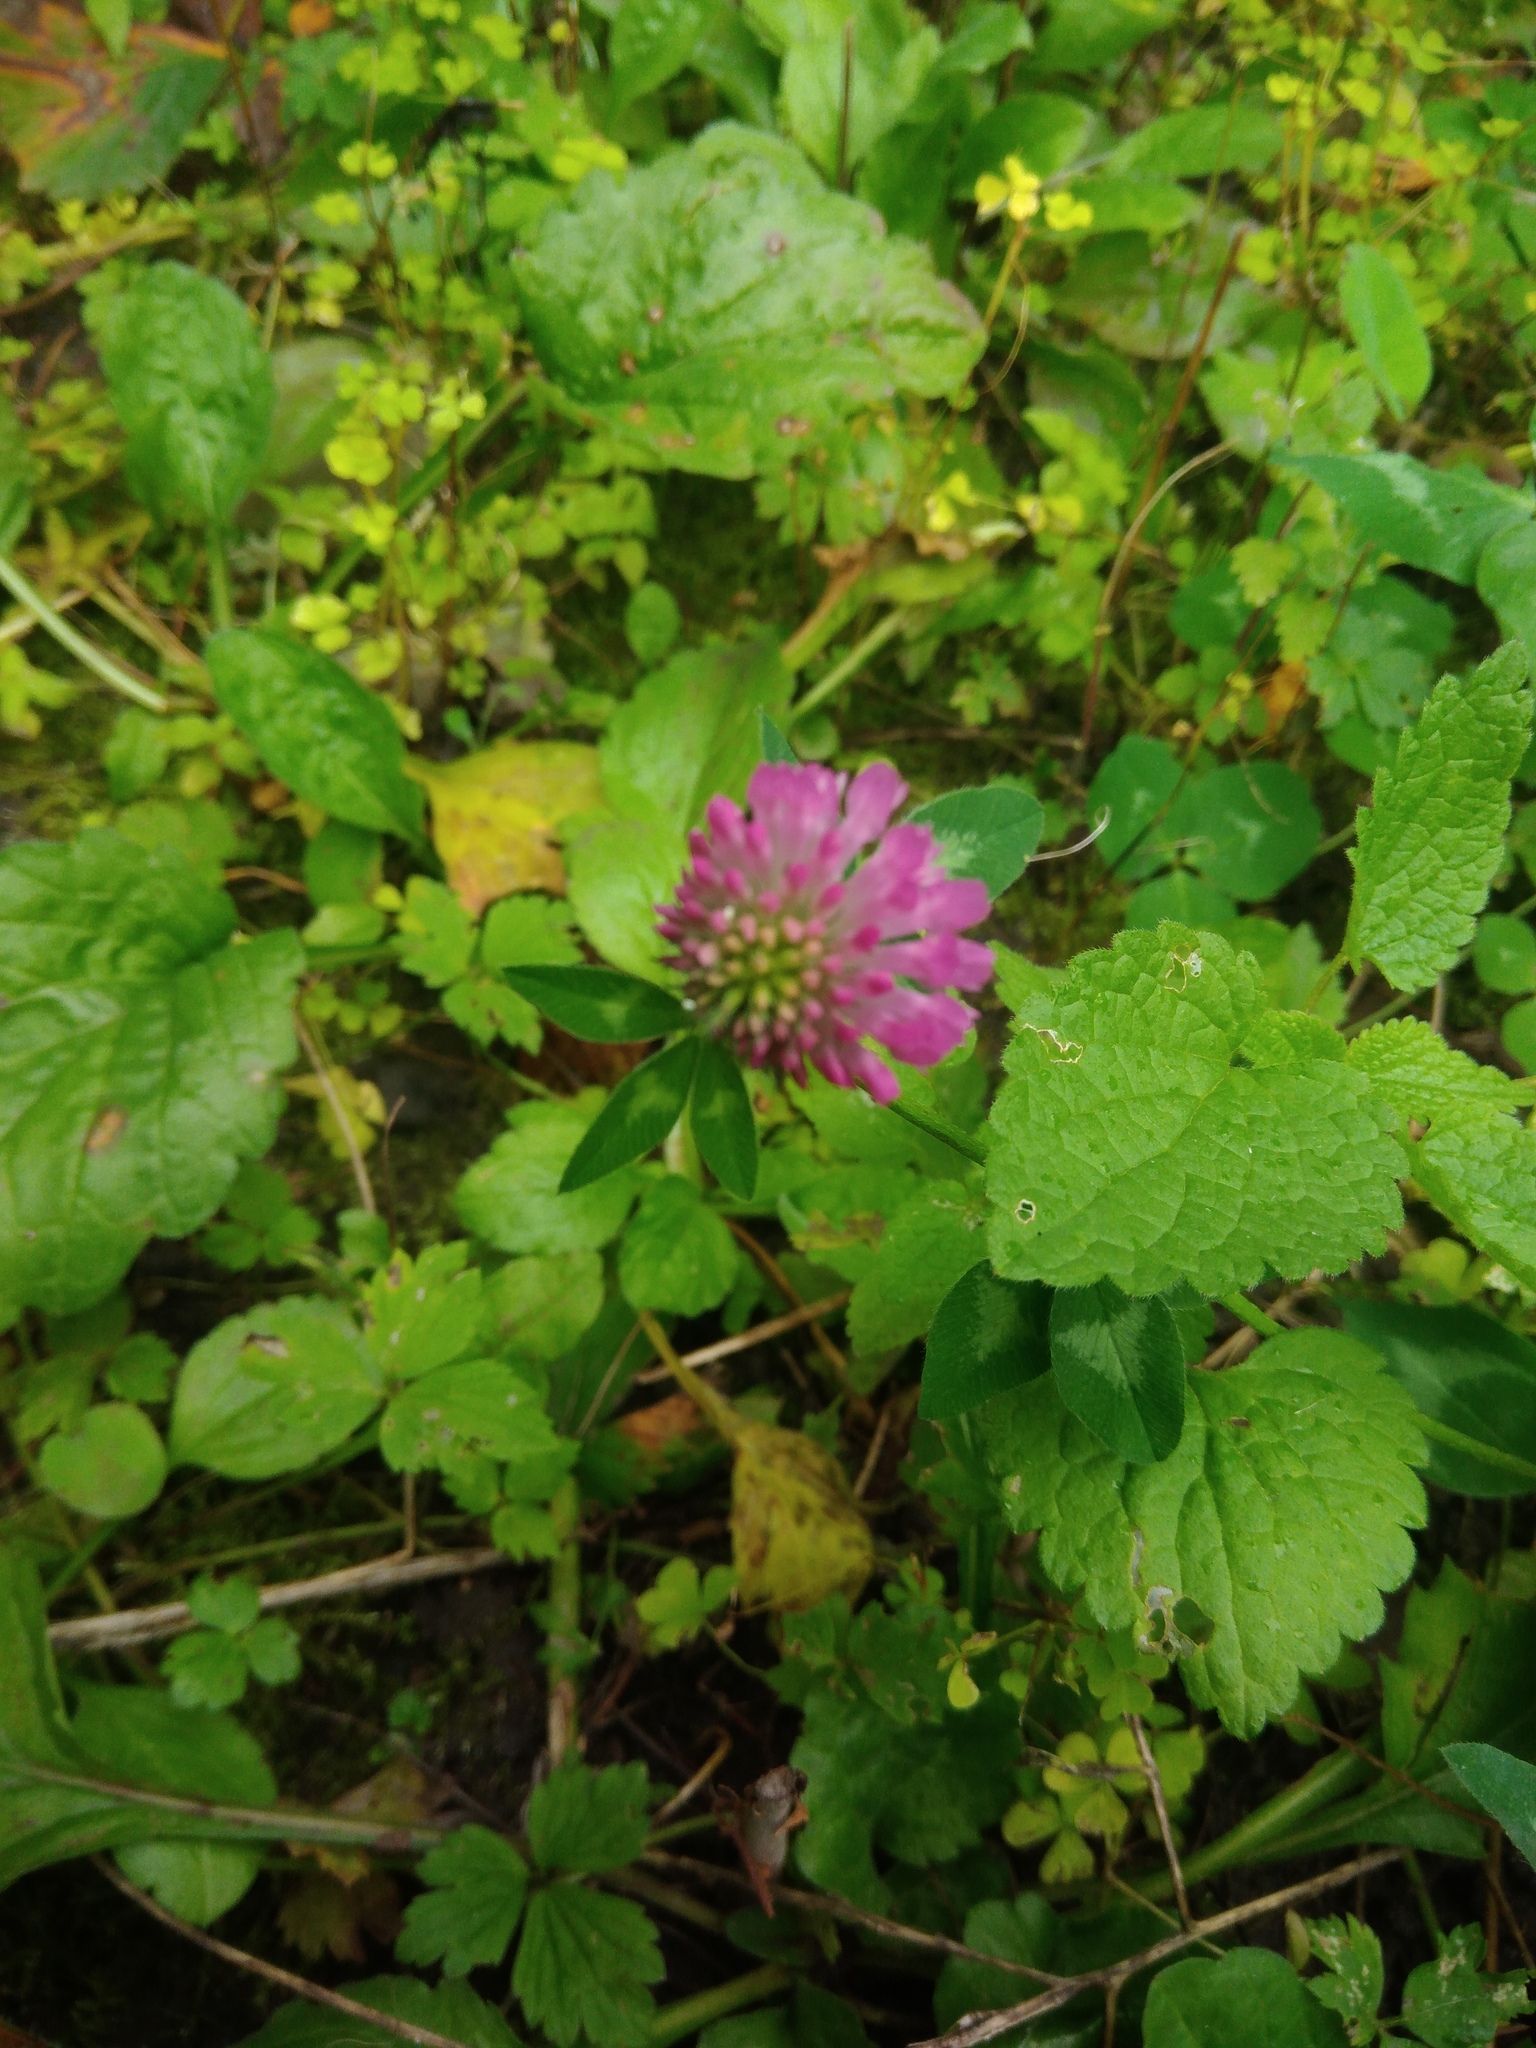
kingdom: Plantae
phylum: Tracheophyta
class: Magnoliopsida
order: Fabales
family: Fabaceae
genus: Trifolium
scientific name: Trifolium pratense
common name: Red clover
